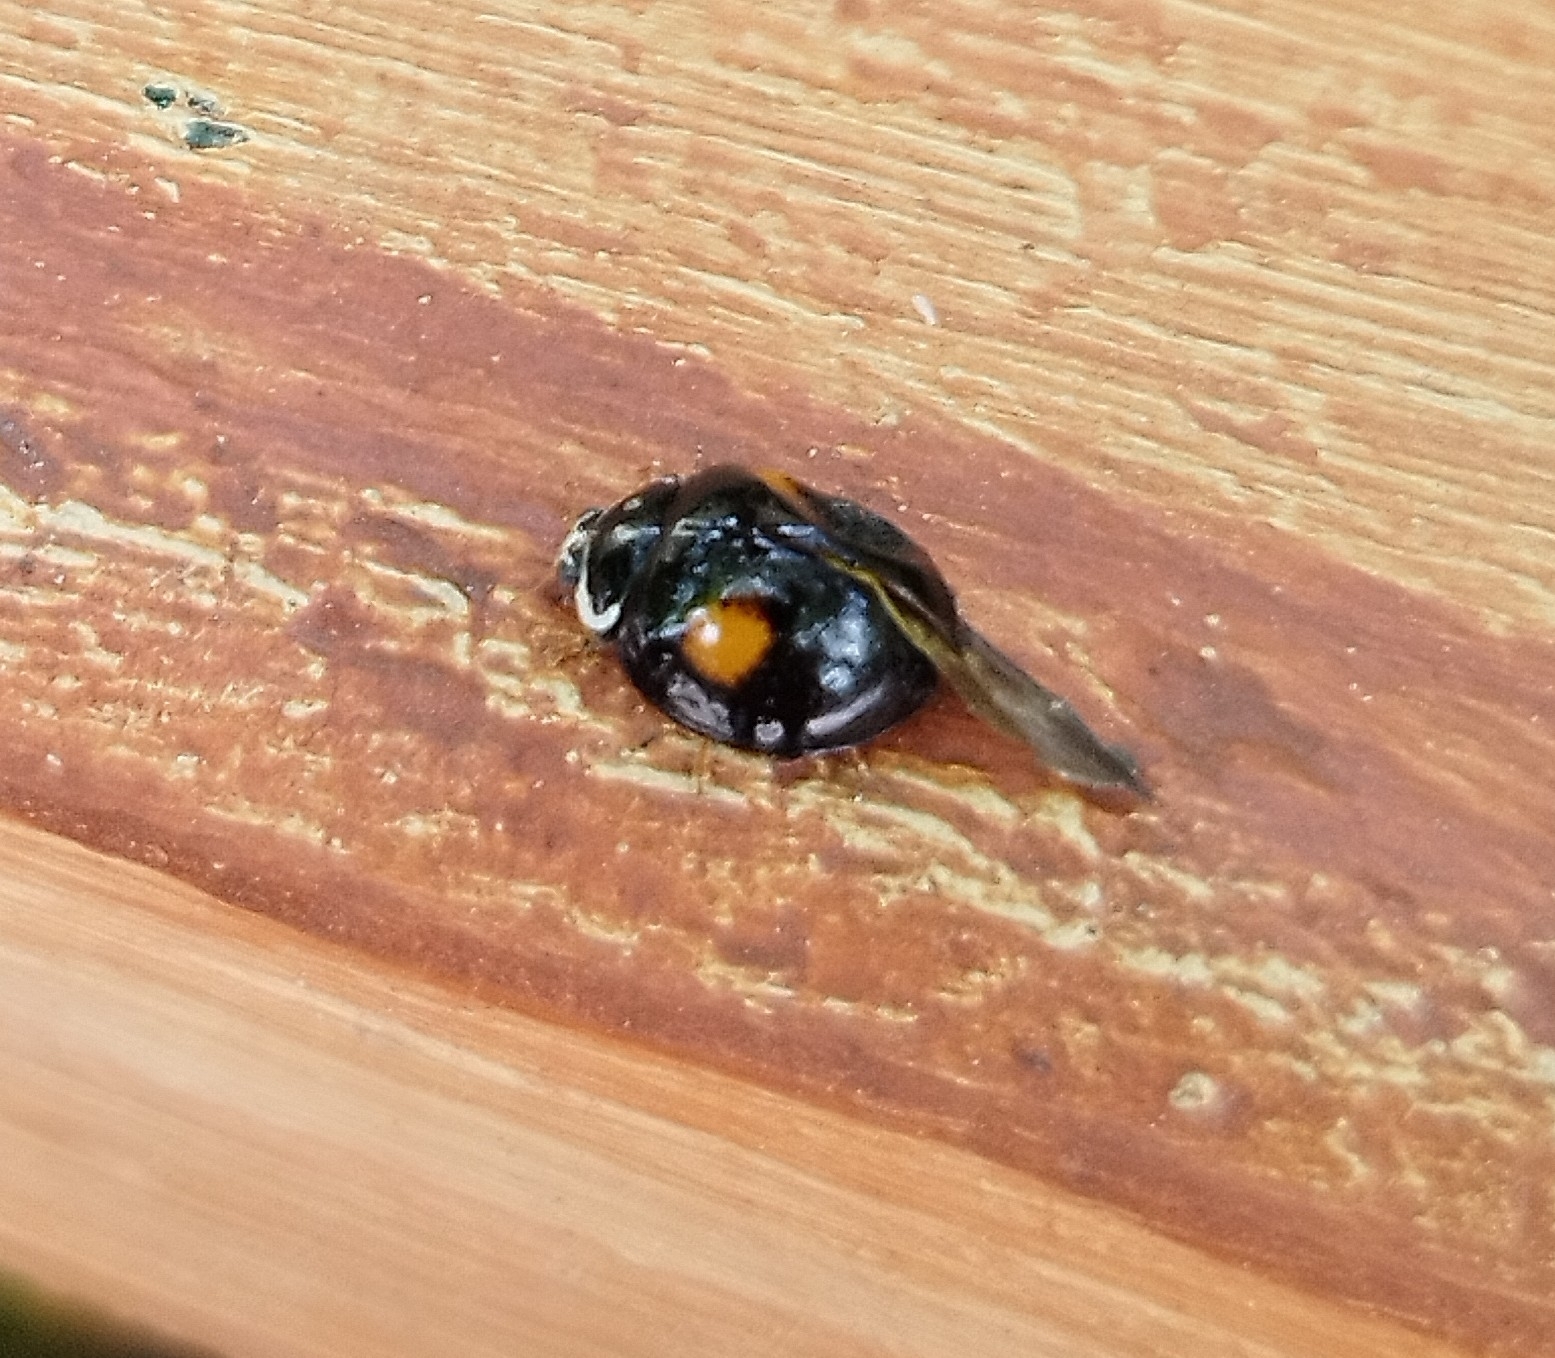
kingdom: Animalia
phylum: Arthropoda
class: Insecta
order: Coleoptera
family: Coccinellidae
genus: Olla
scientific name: Olla v-nigrum
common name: Ashy gray lady beetle
